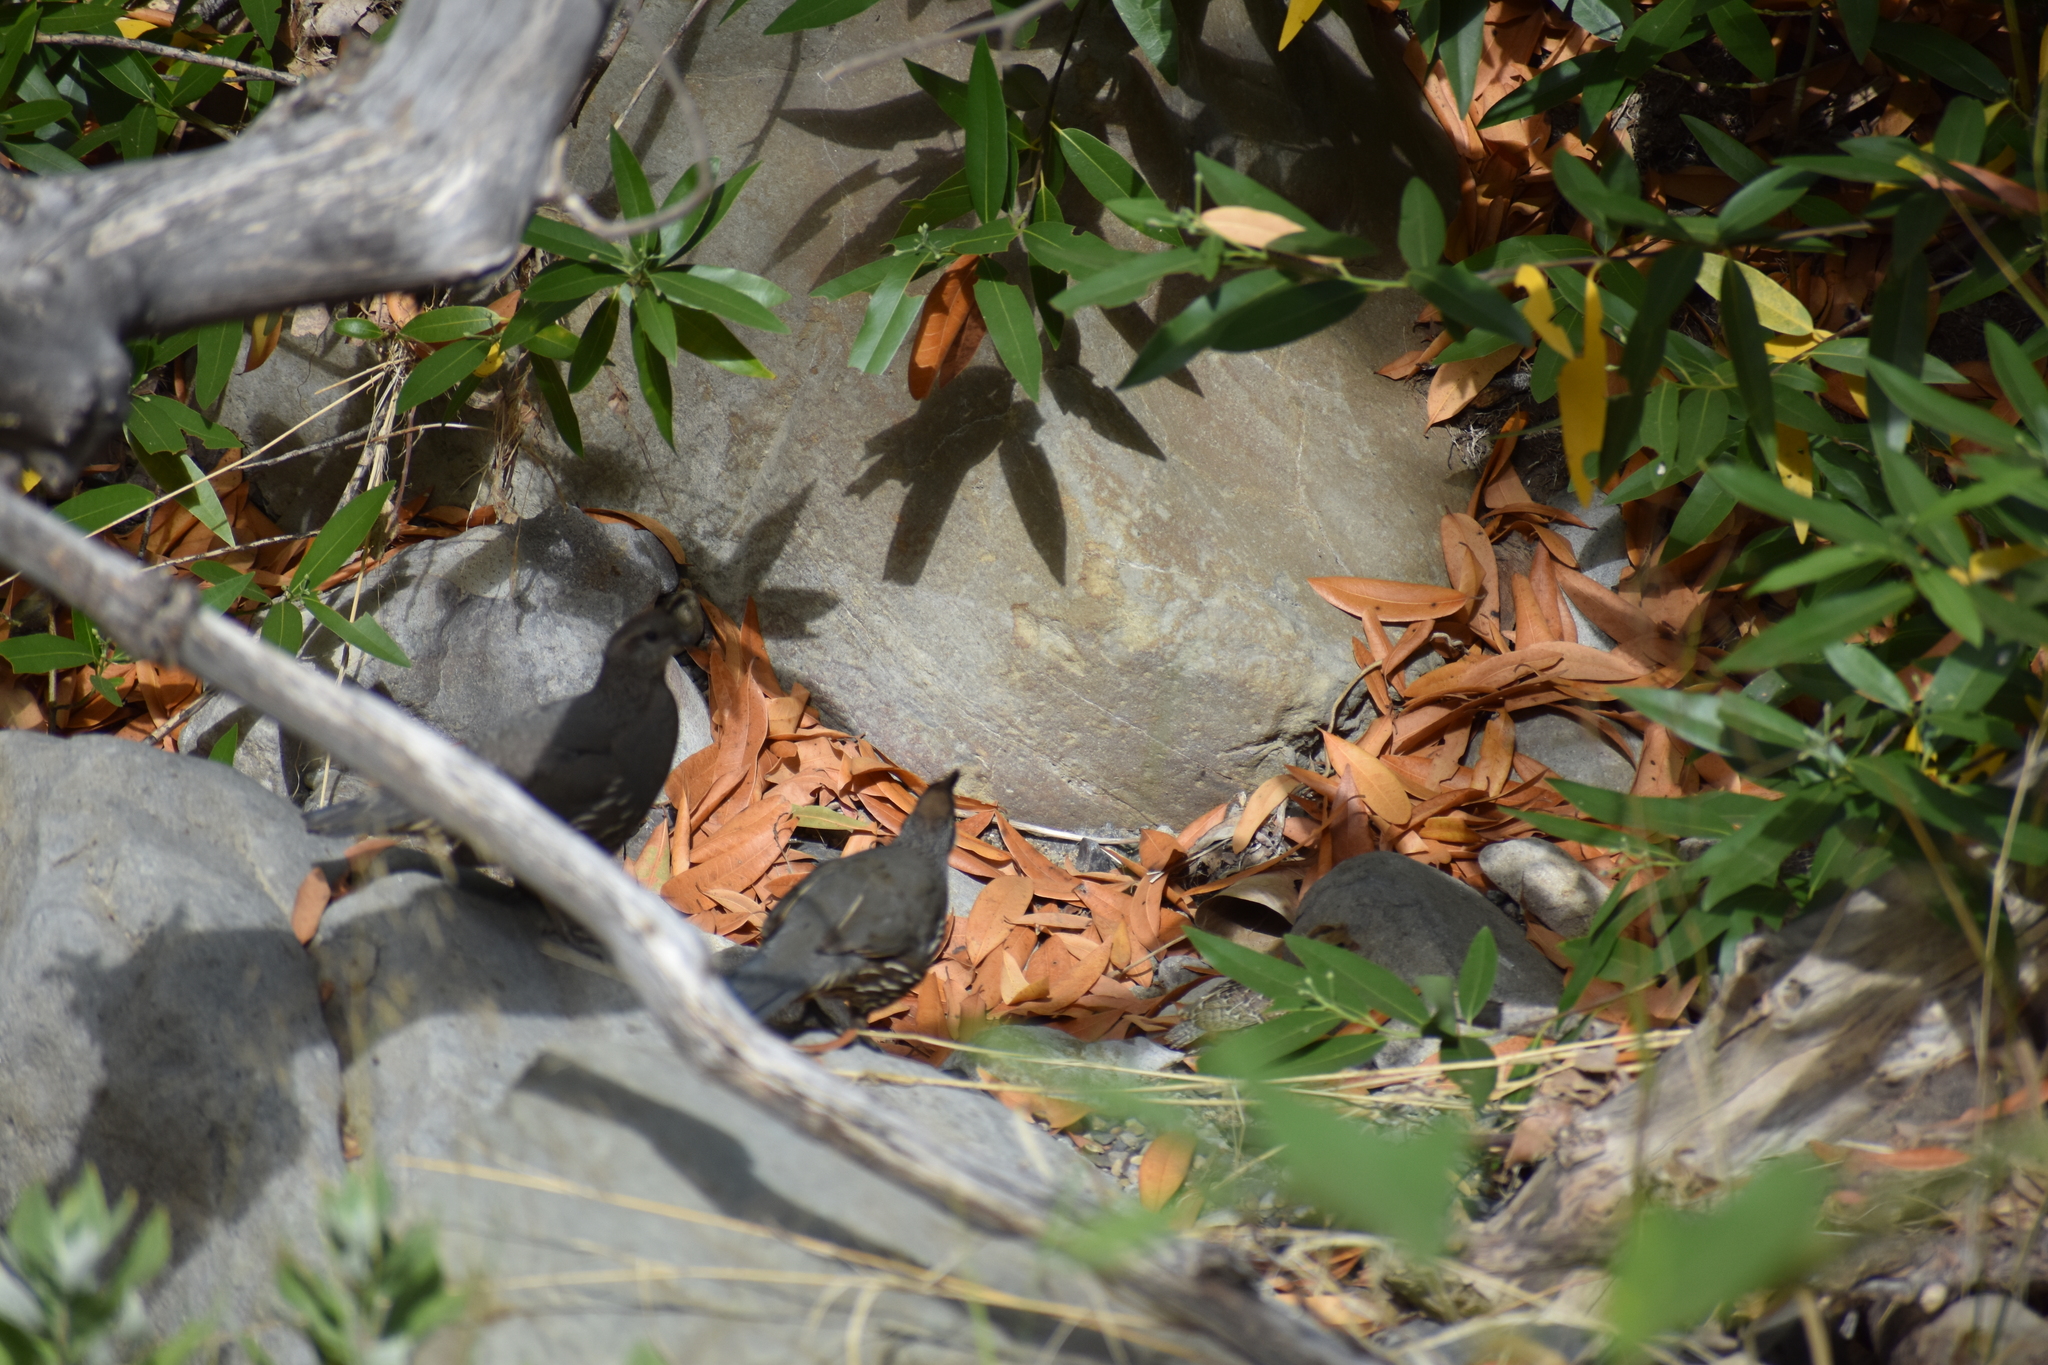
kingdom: Animalia
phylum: Chordata
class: Aves
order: Galliformes
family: Odontophoridae
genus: Callipepla
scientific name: Callipepla californica
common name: California quail
